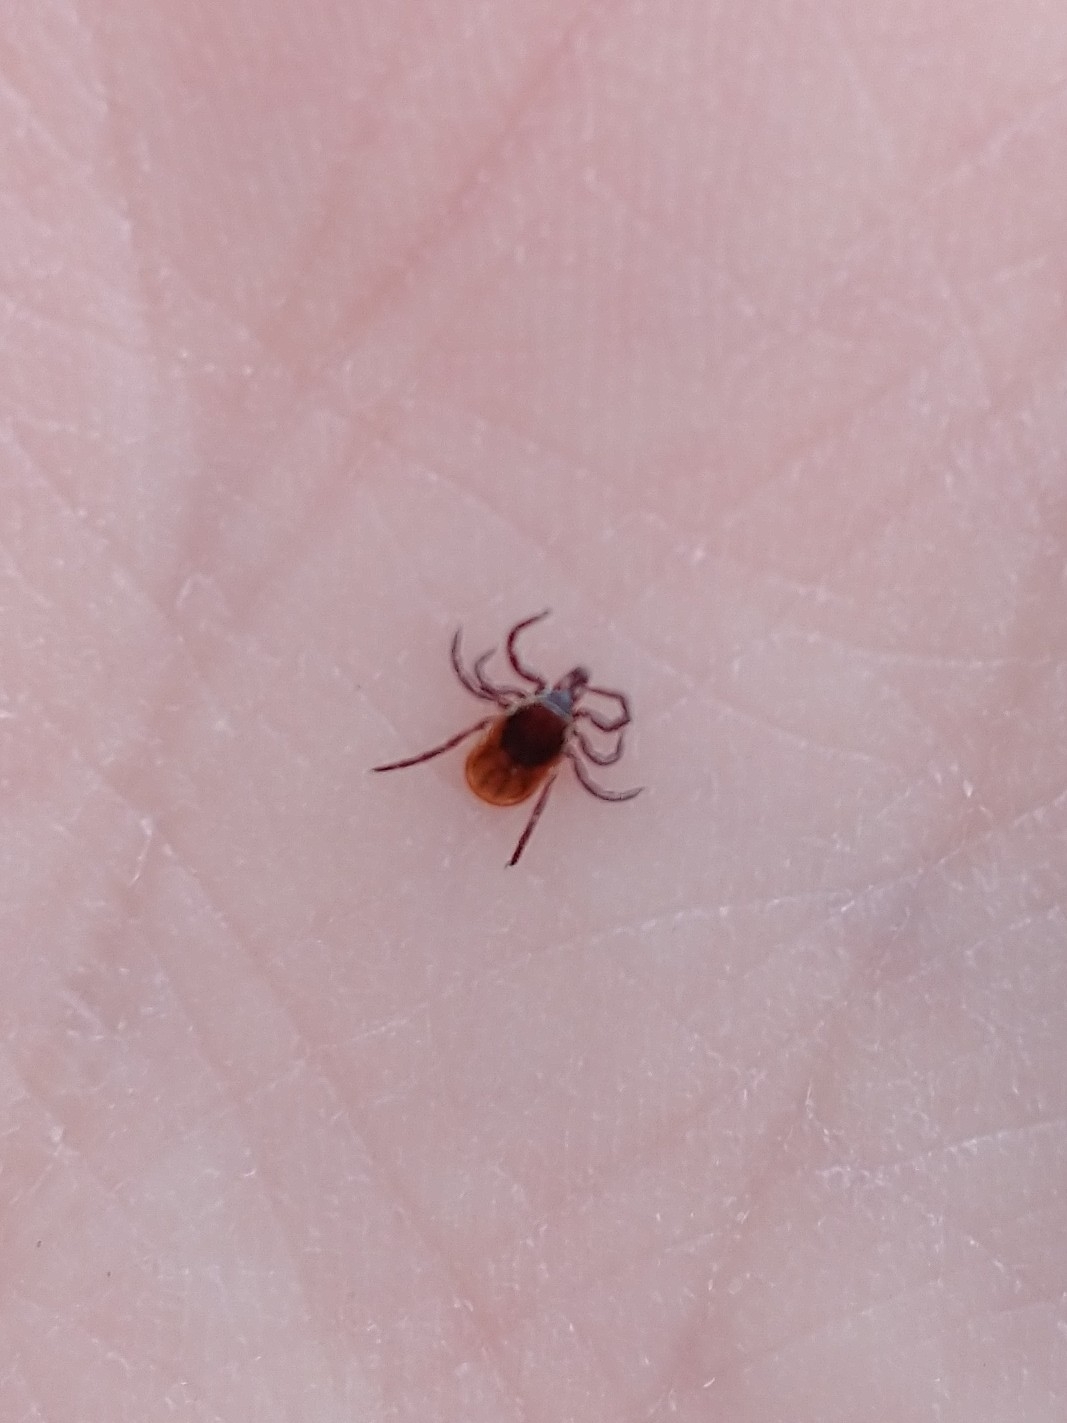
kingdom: Animalia
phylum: Arthropoda
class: Arachnida
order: Ixodida
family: Ixodidae
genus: Ixodes
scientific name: Ixodes scapularis
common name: Black legged tick
